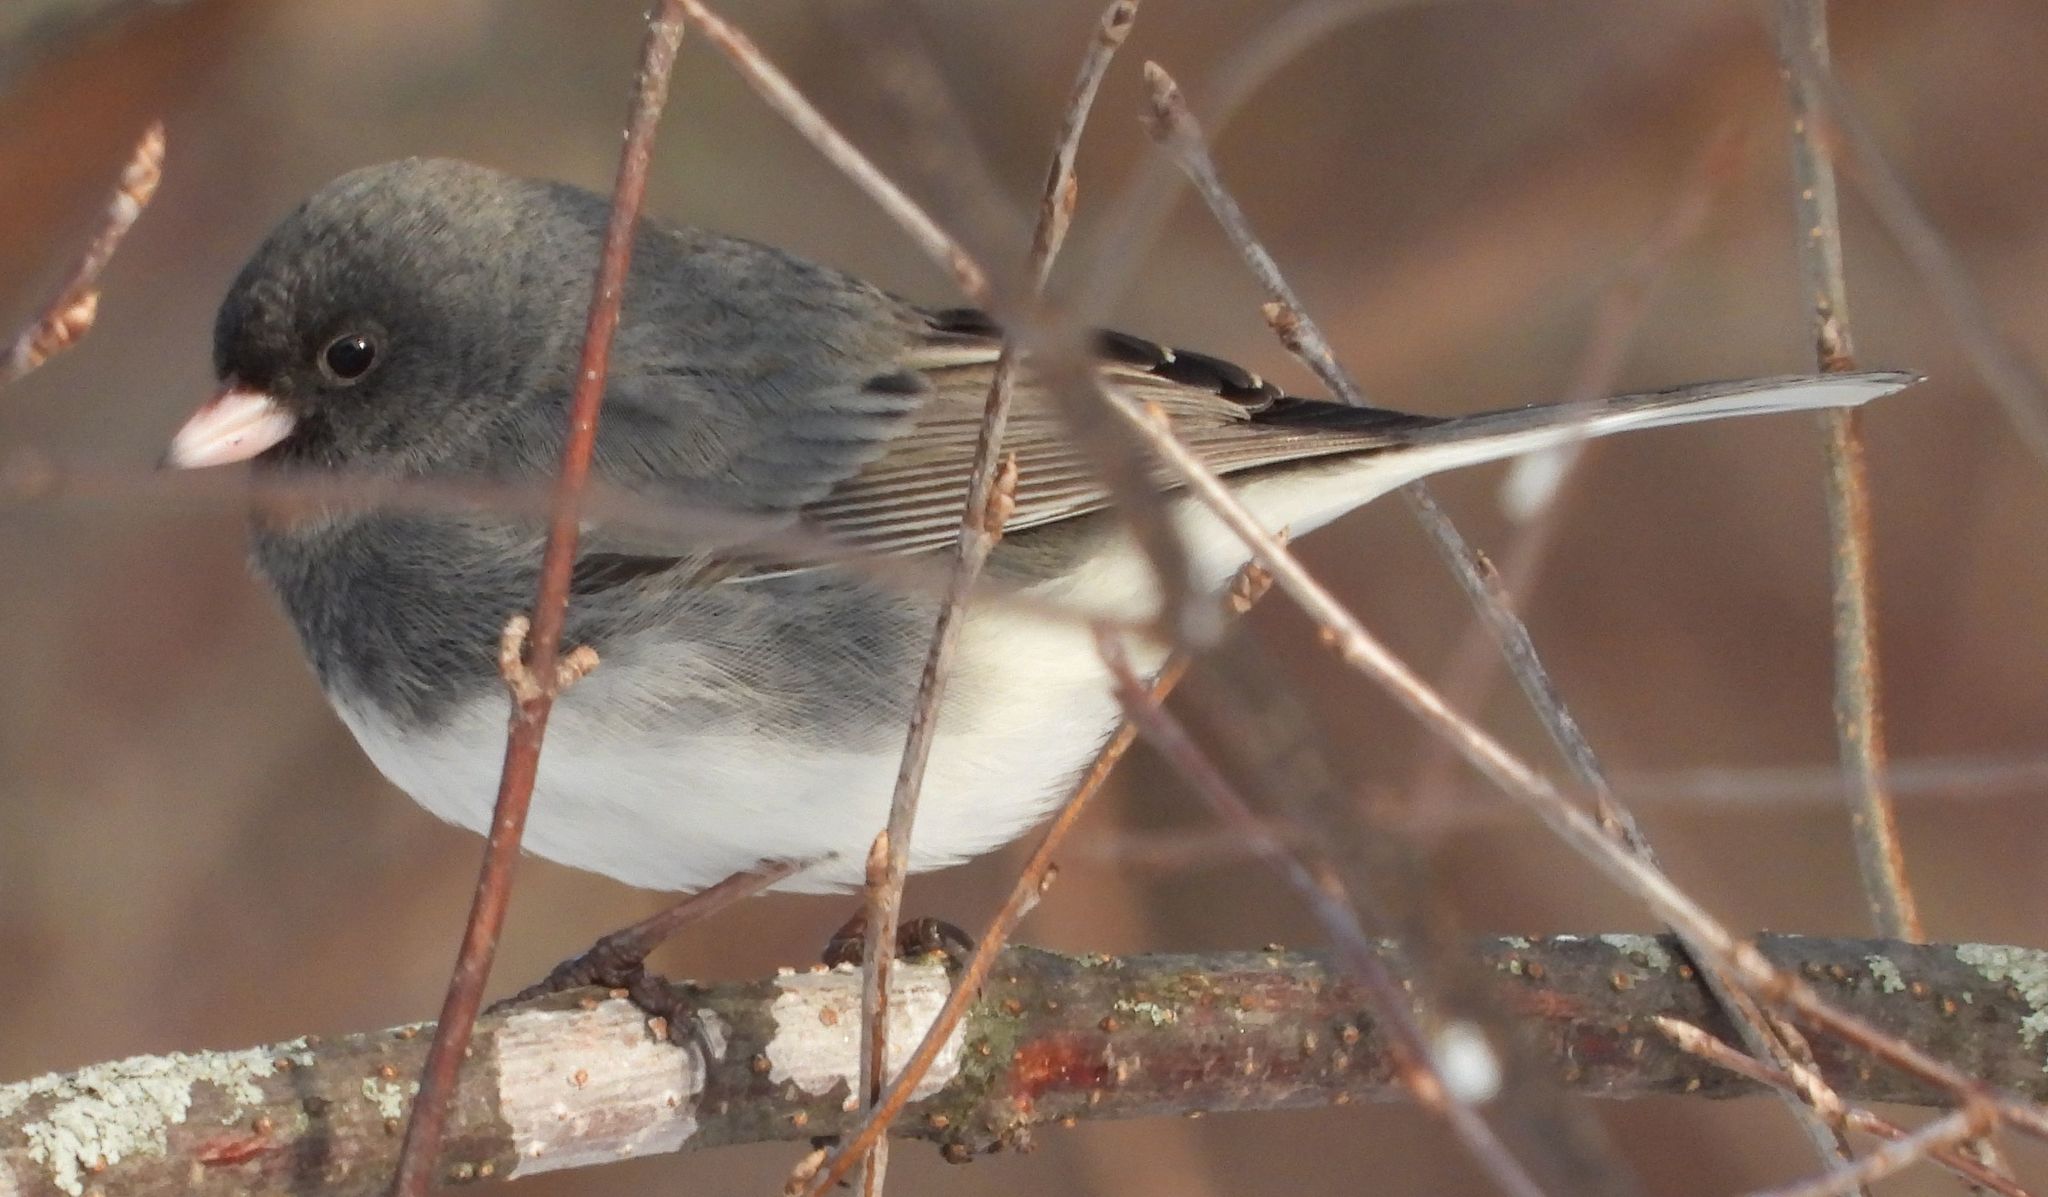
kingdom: Animalia
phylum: Chordata
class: Aves
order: Passeriformes
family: Passerellidae
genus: Junco
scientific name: Junco hyemalis
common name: Dark-eyed junco
